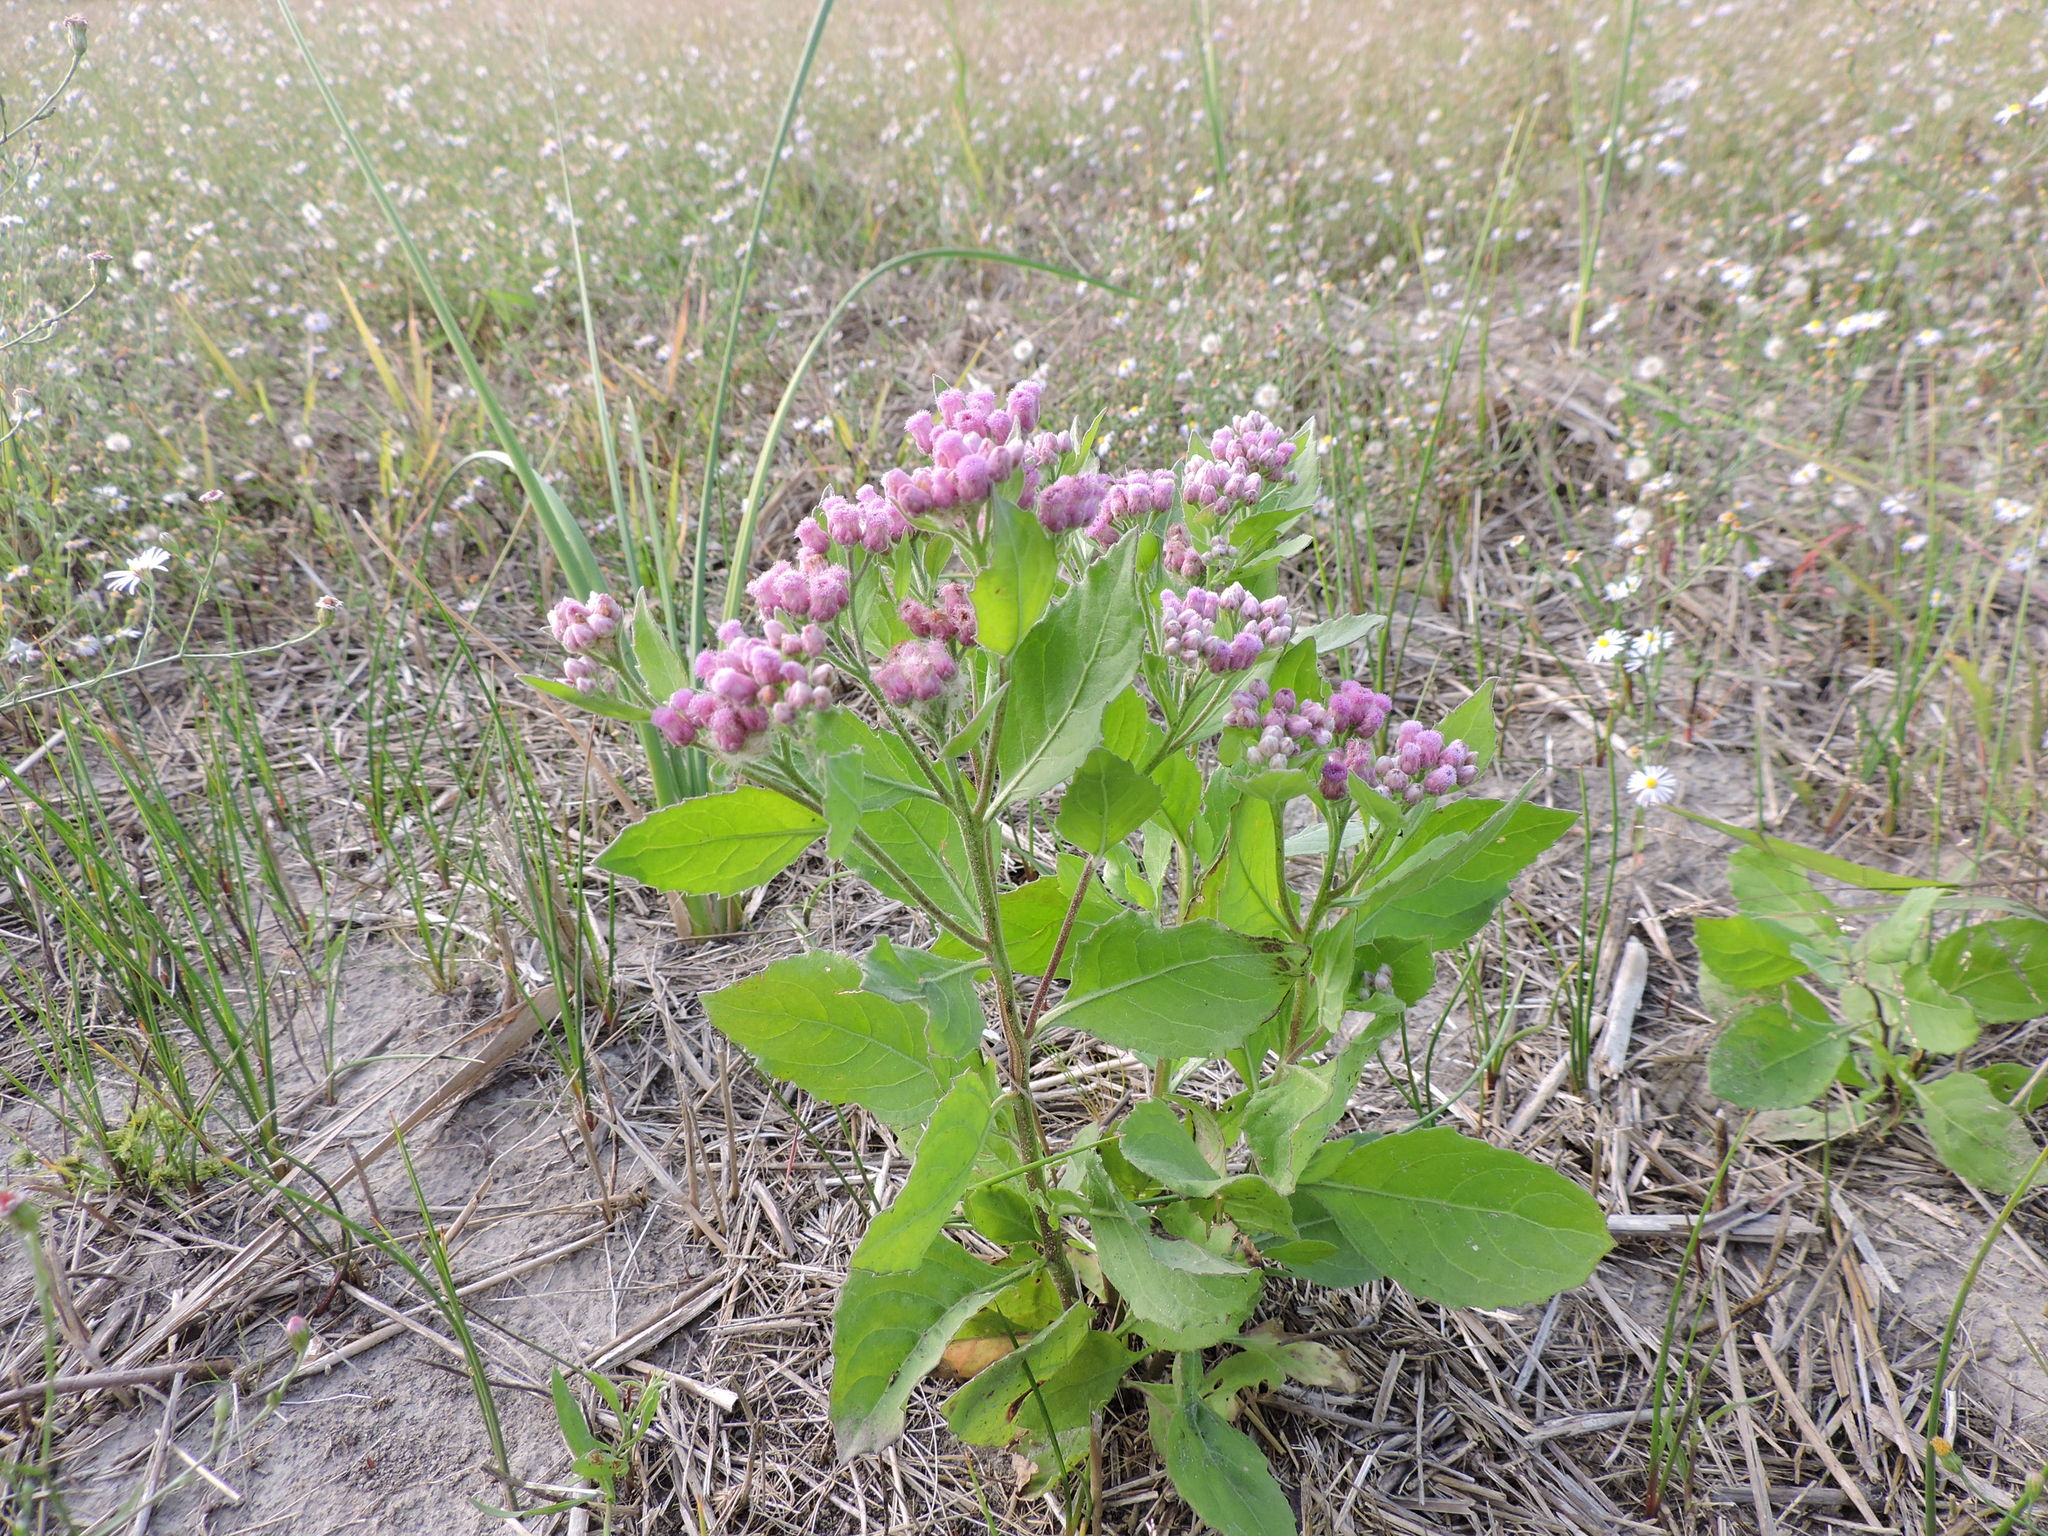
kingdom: Plantae
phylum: Tracheophyta
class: Magnoliopsida
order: Asterales
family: Asteraceae
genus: Pluchea
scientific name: Pluchea odorata
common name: Saltmarsh fleabane
